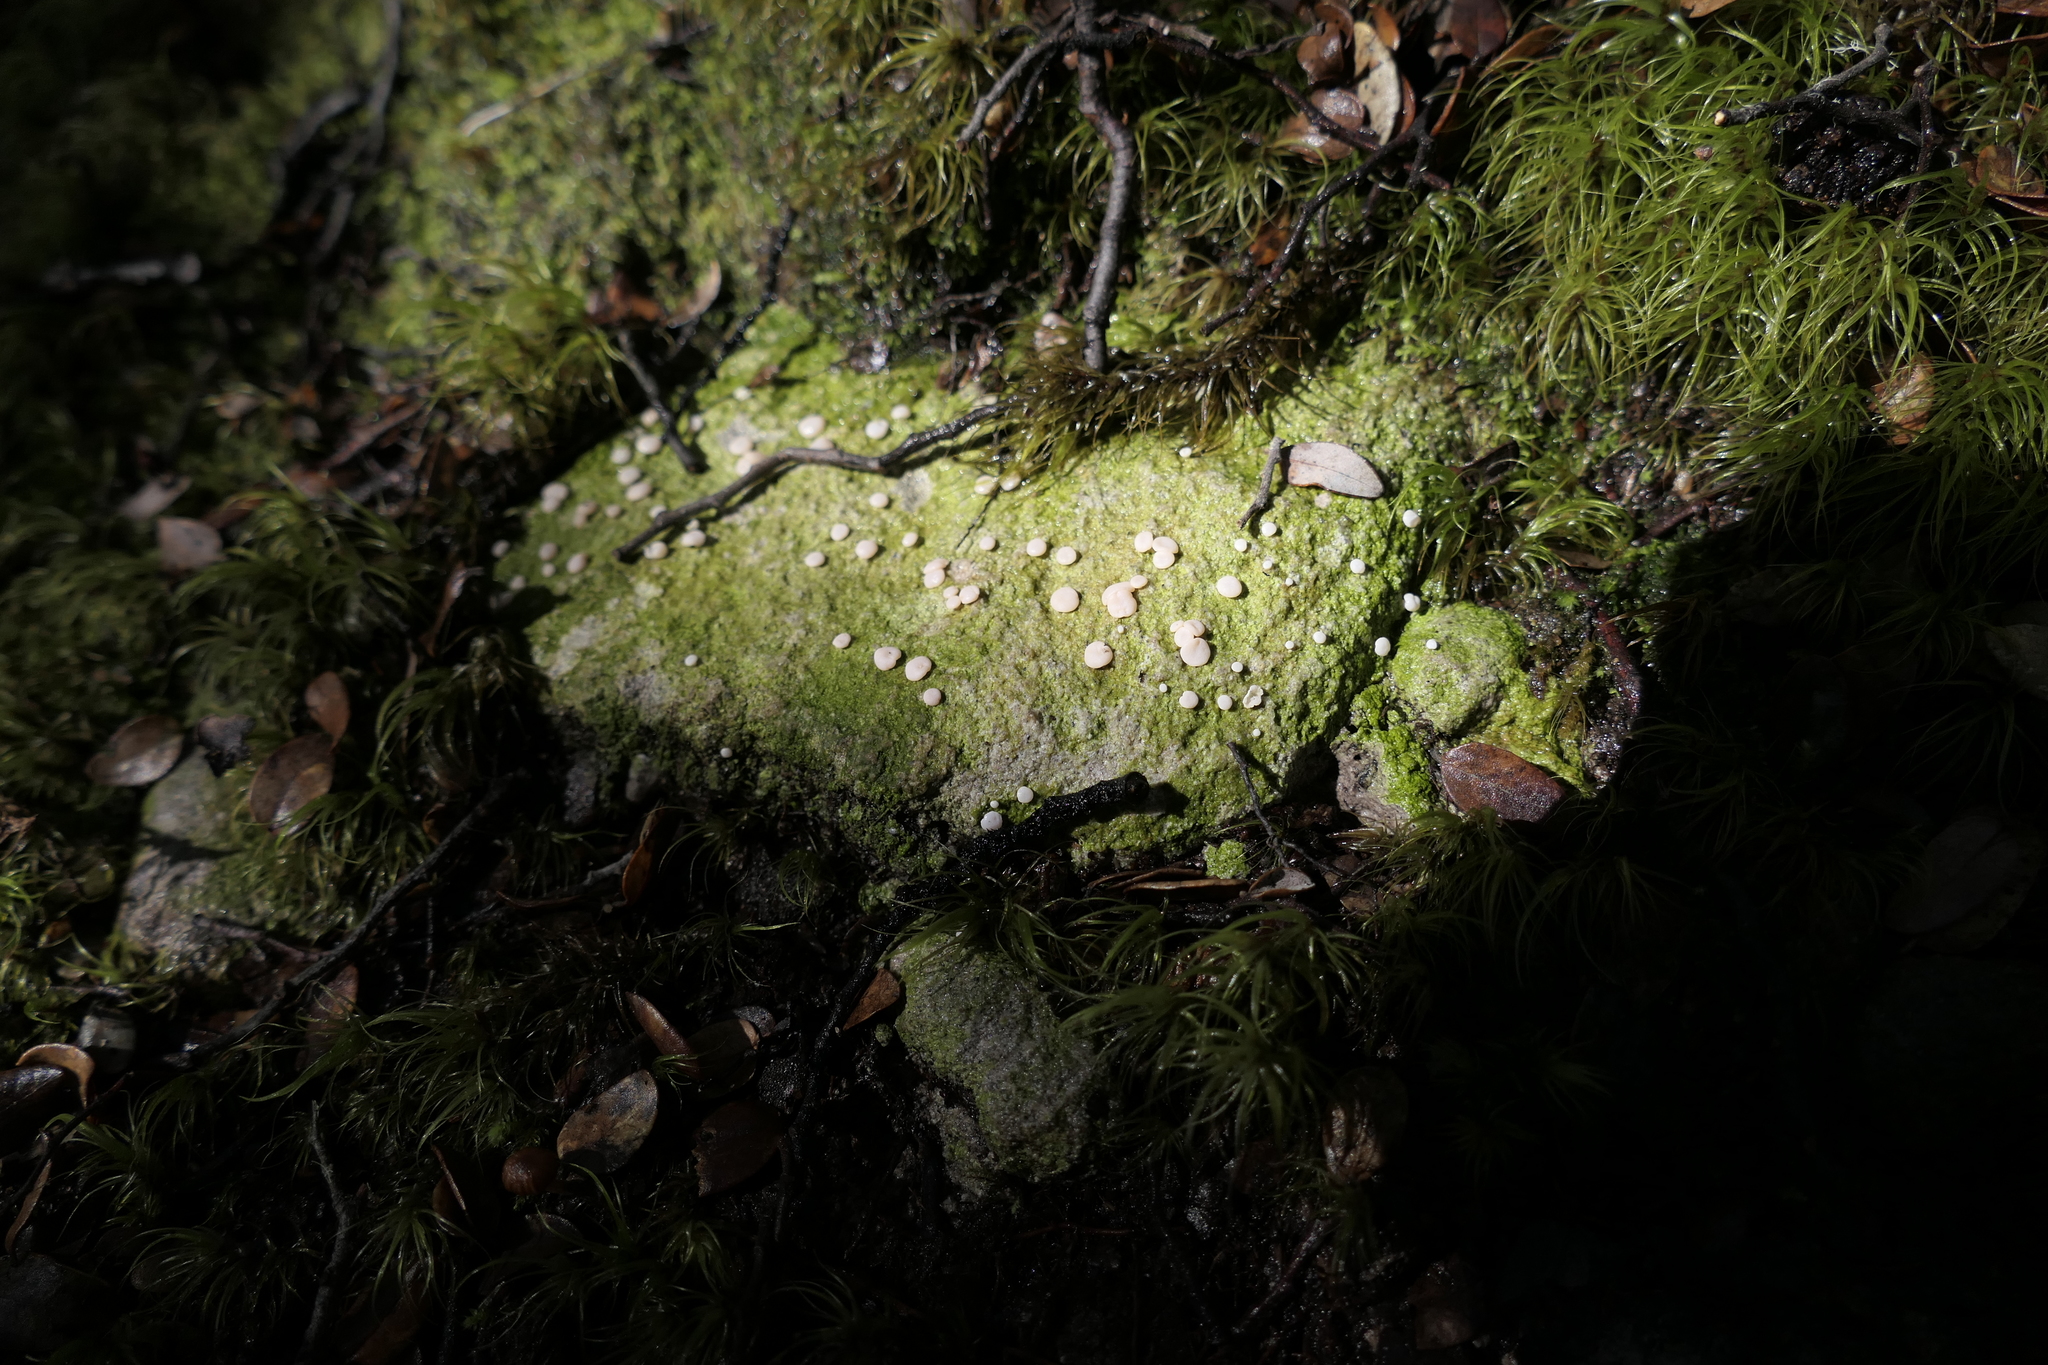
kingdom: Fungi
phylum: Ascomycota
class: Lecanoromycetes
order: Pertusariales
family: Icmadophilaceae
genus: Dibaeis
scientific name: Dibaeis absoluta
